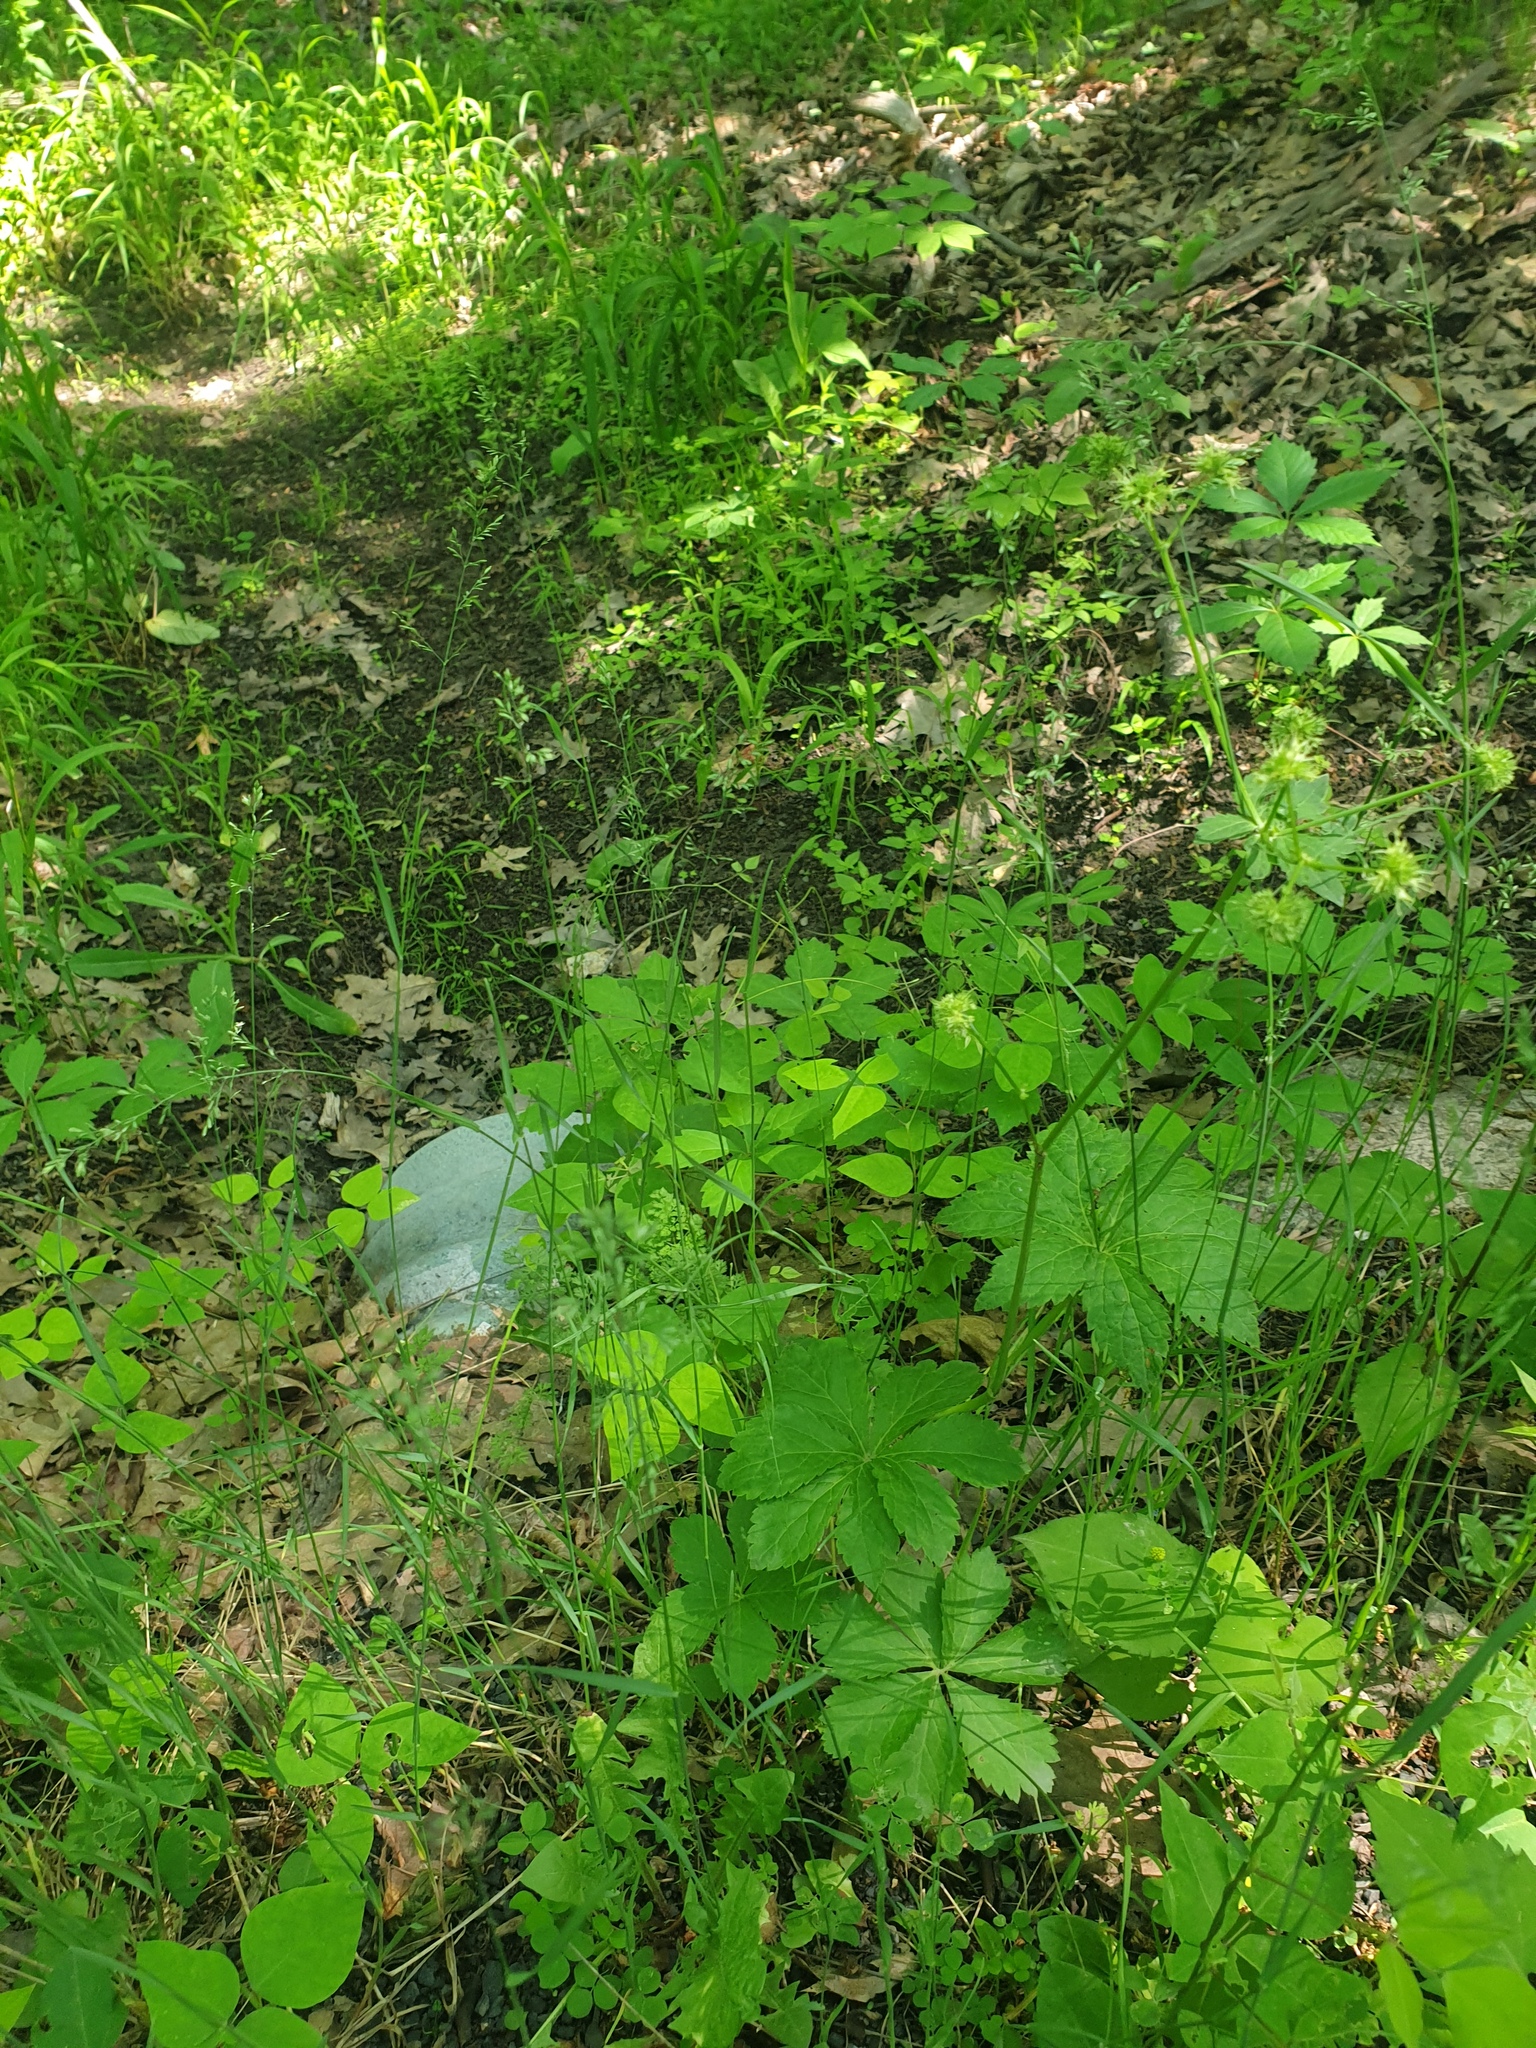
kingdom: Plantae
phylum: Tracheophyta
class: Magnoliopsida
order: Fabales
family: Fabaceae
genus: Amphicarpaea
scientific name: Amphicarpaea bracteata
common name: American hog peanut
